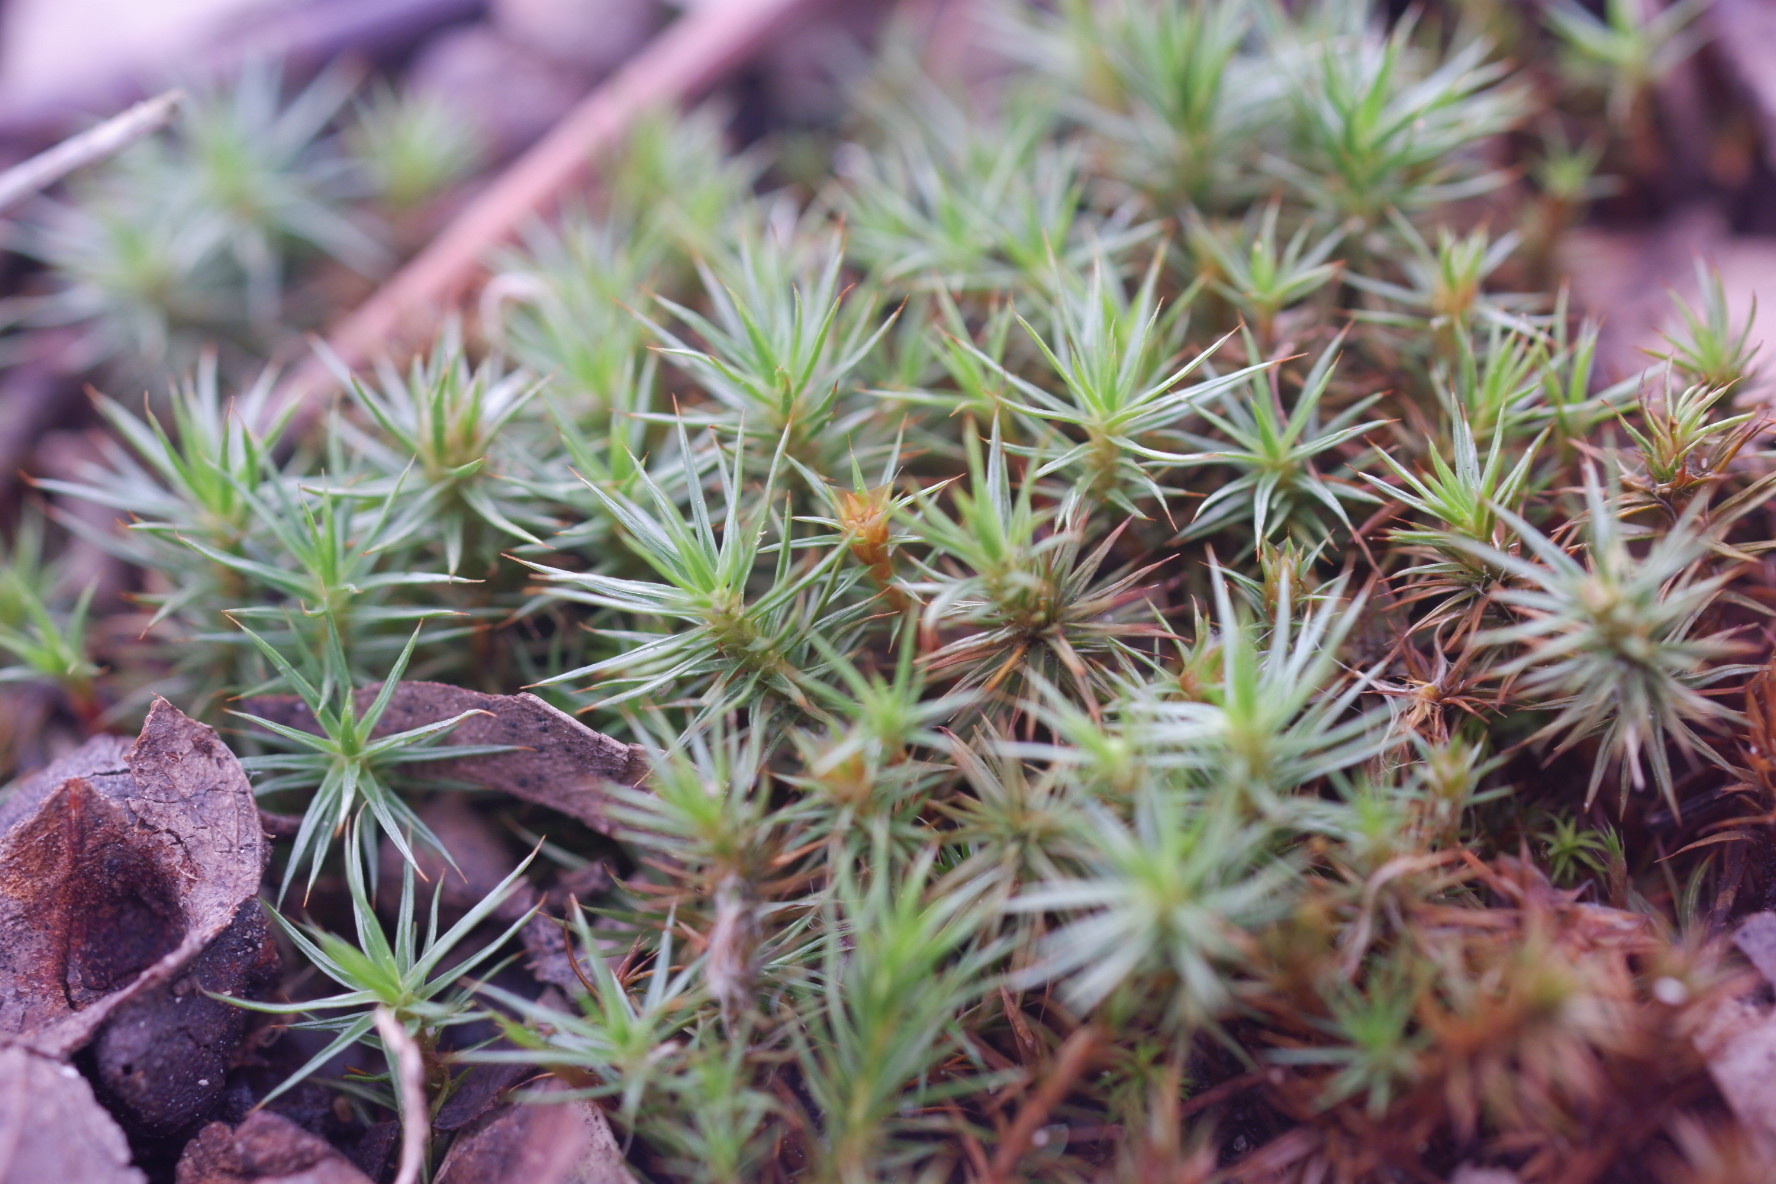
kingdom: Plantae
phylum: Bryophyta
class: Polytrichopsida
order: Polytrichales
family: Polytrichaceae
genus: Polytrichum
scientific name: Polytrichum juniperinum
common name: Juniper haircap moss
